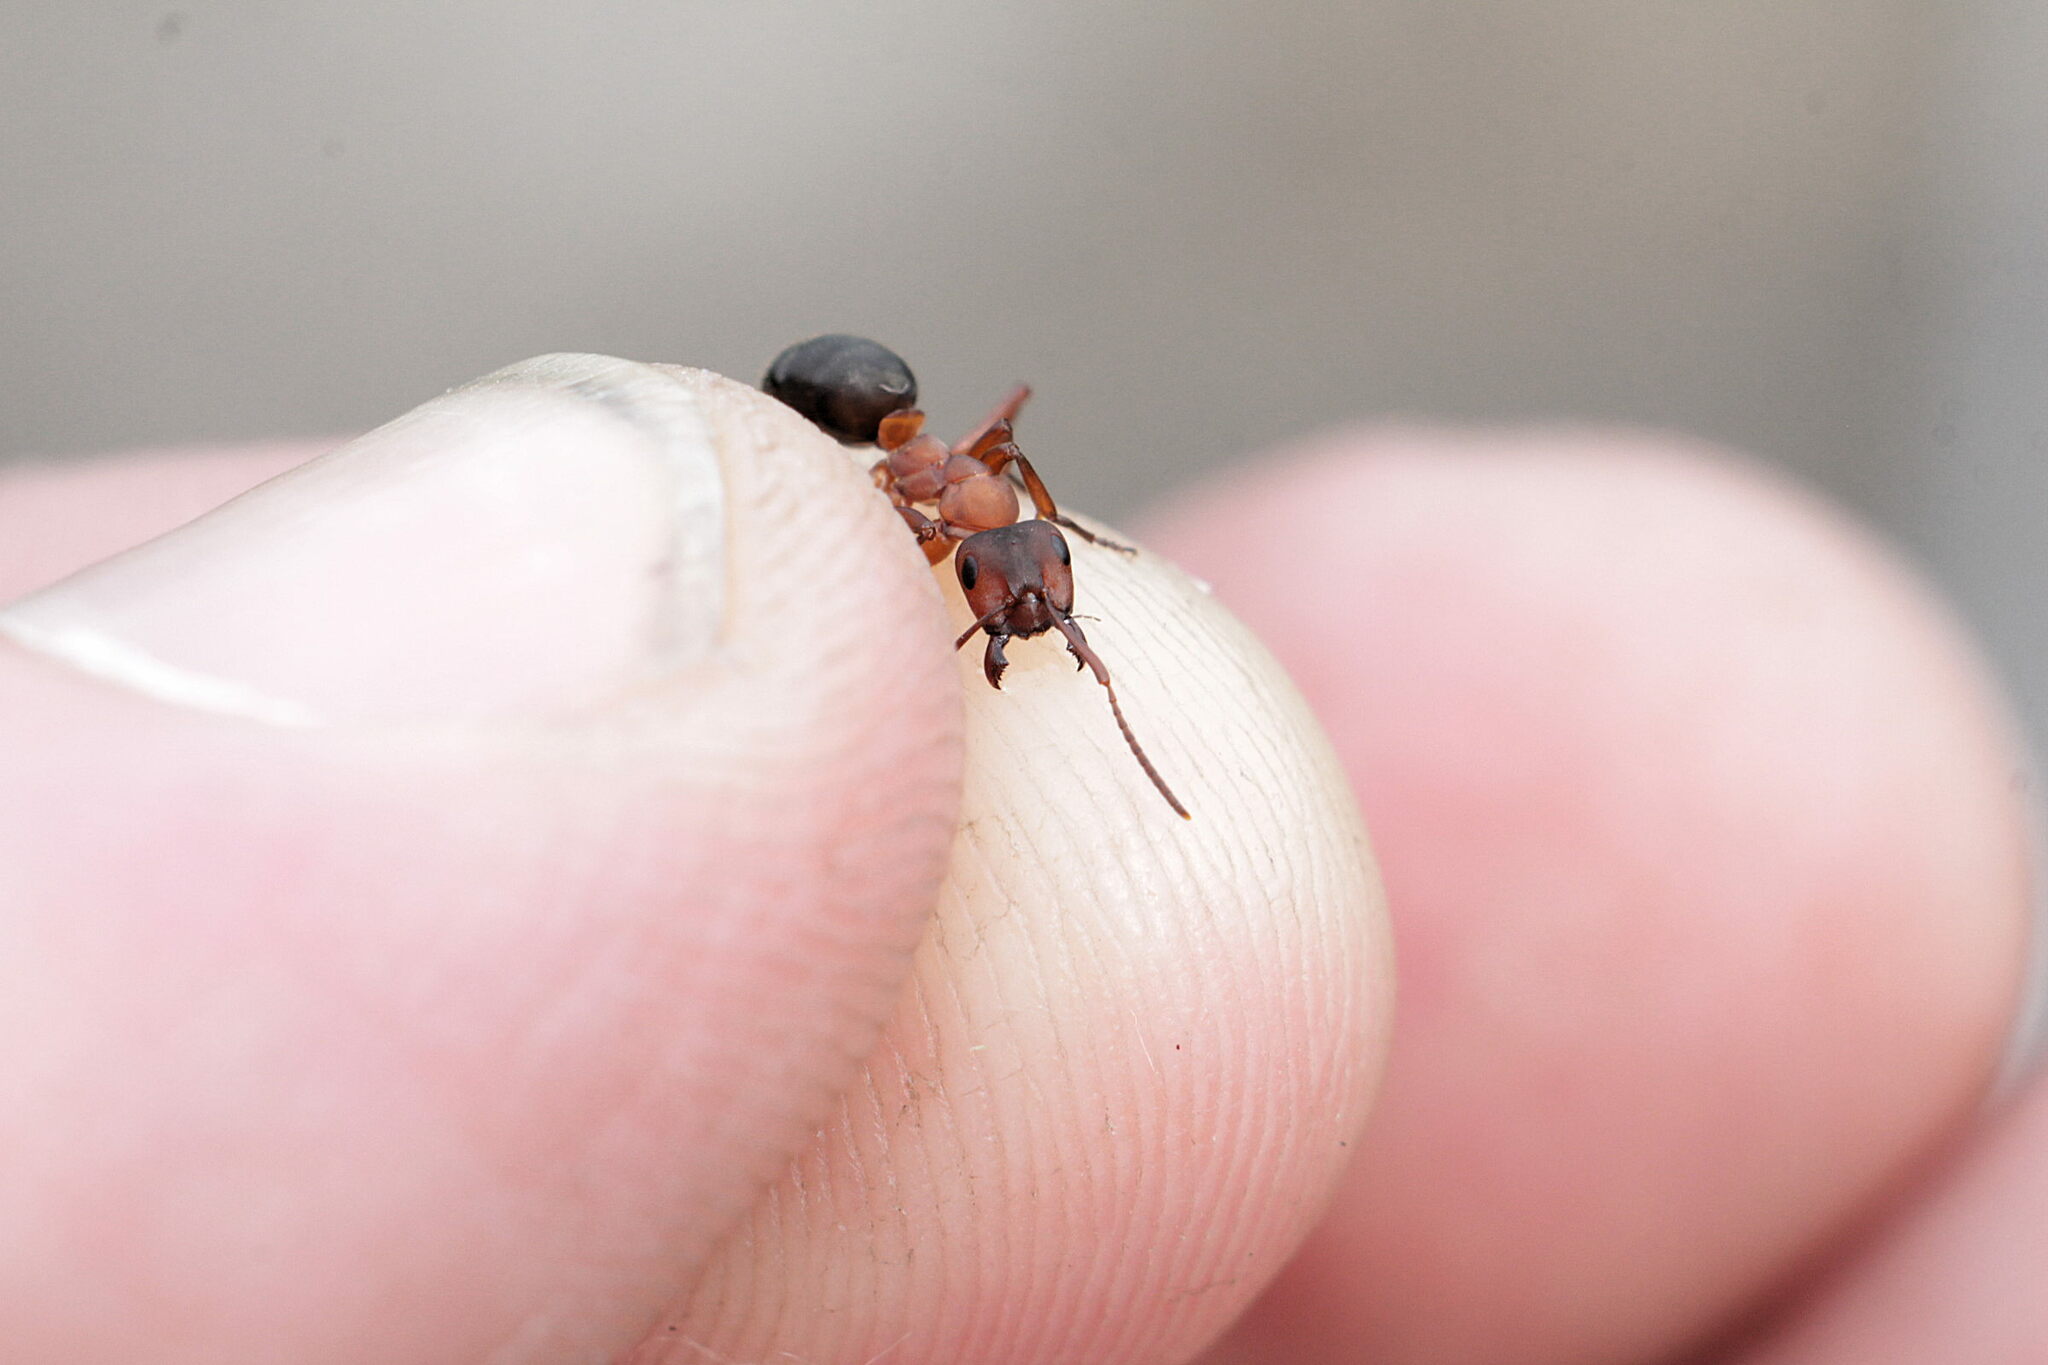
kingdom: Animalia
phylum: Arthropoda
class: Insecta
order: Hymenoptera
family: Formicidae
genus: Formica
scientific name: Formica sanguinea
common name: Blood-red ant
